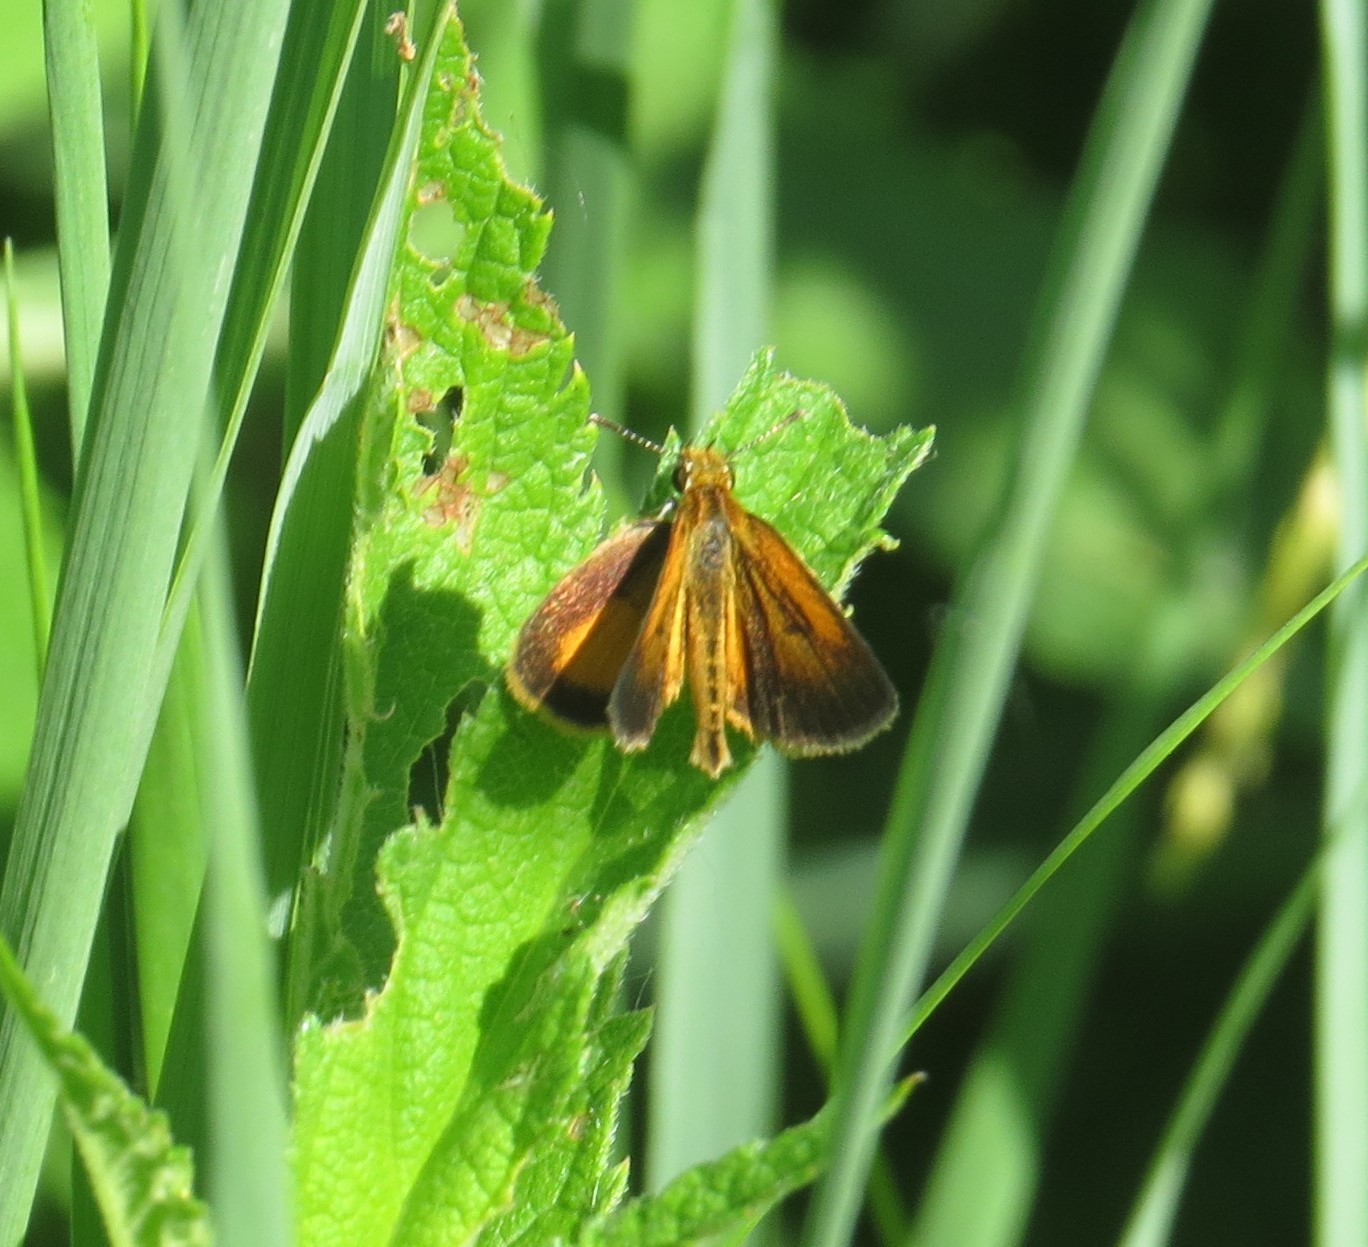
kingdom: Animalia
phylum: Arthropoda
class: Insecta
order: Lepidoptera
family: Hesperiidae
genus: Ancyloxypha
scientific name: Ancyloxypha numitor
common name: Least skipper
